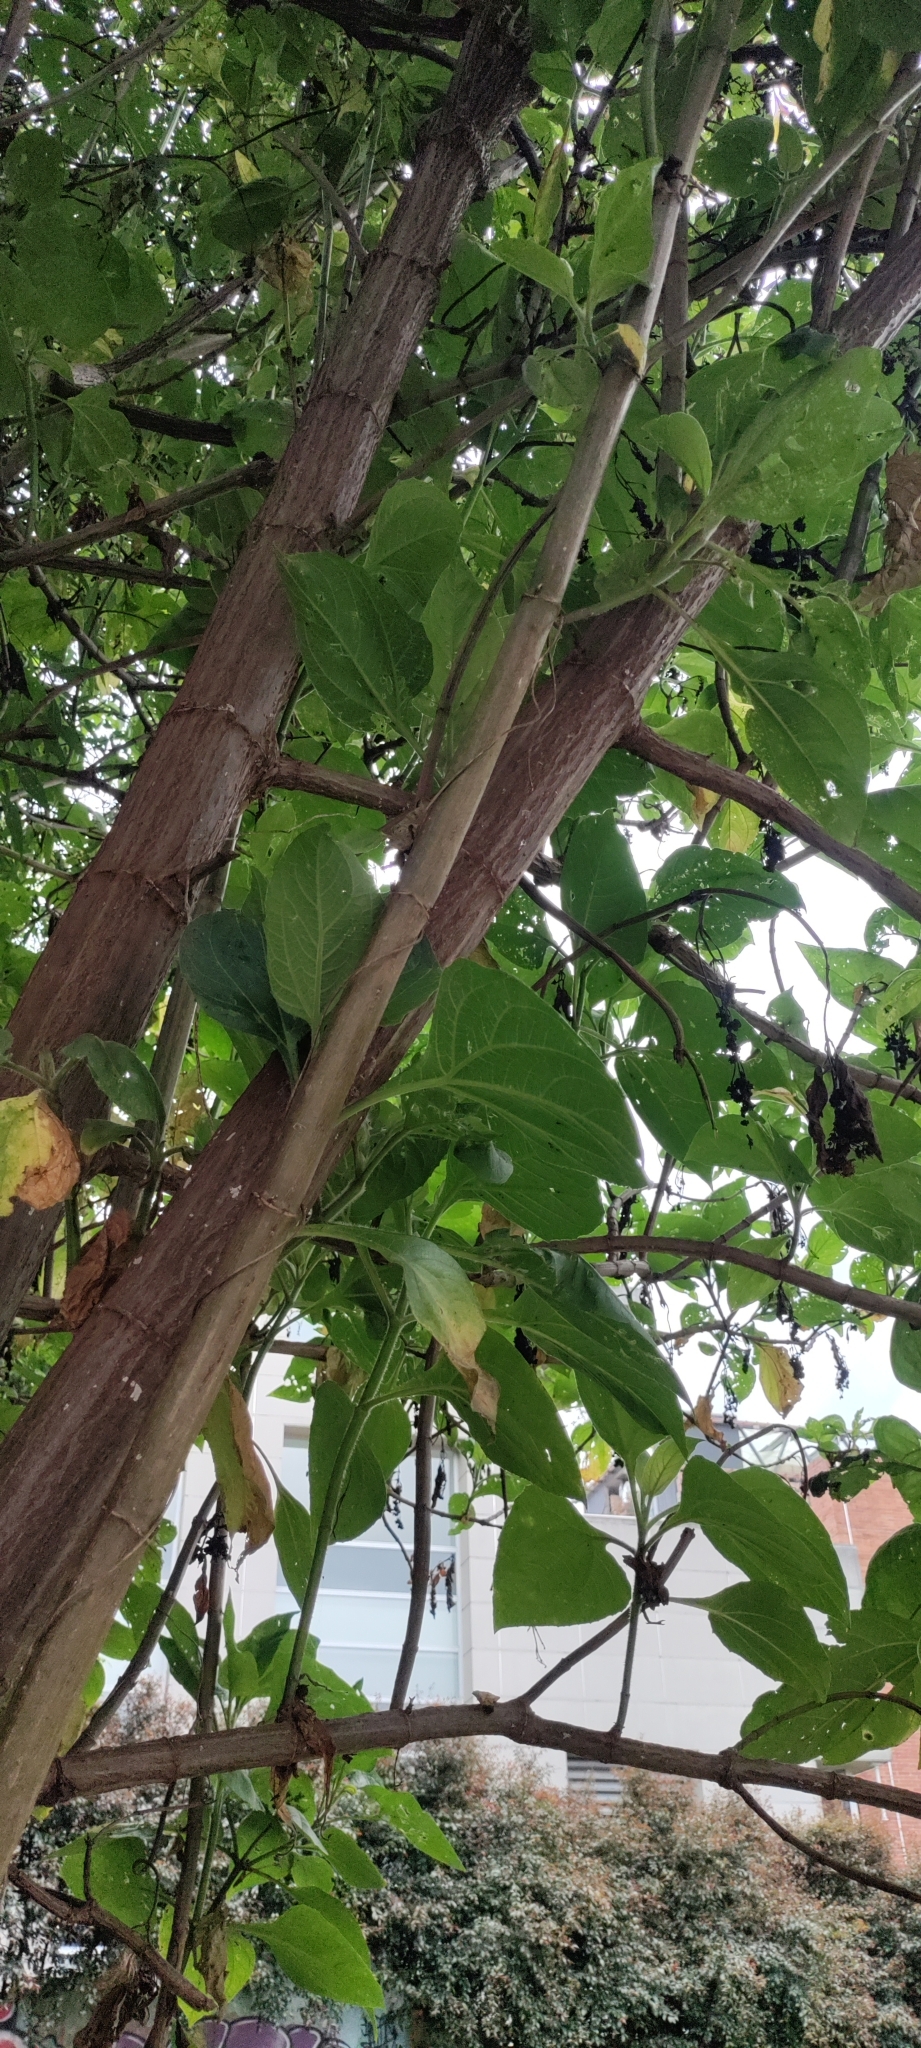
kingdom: Plantae
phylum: Tracheophyta
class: Magnoliopsida
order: Asterales
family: Asteraceae
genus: Smallanthus
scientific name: Smallanthus pyramidalis
